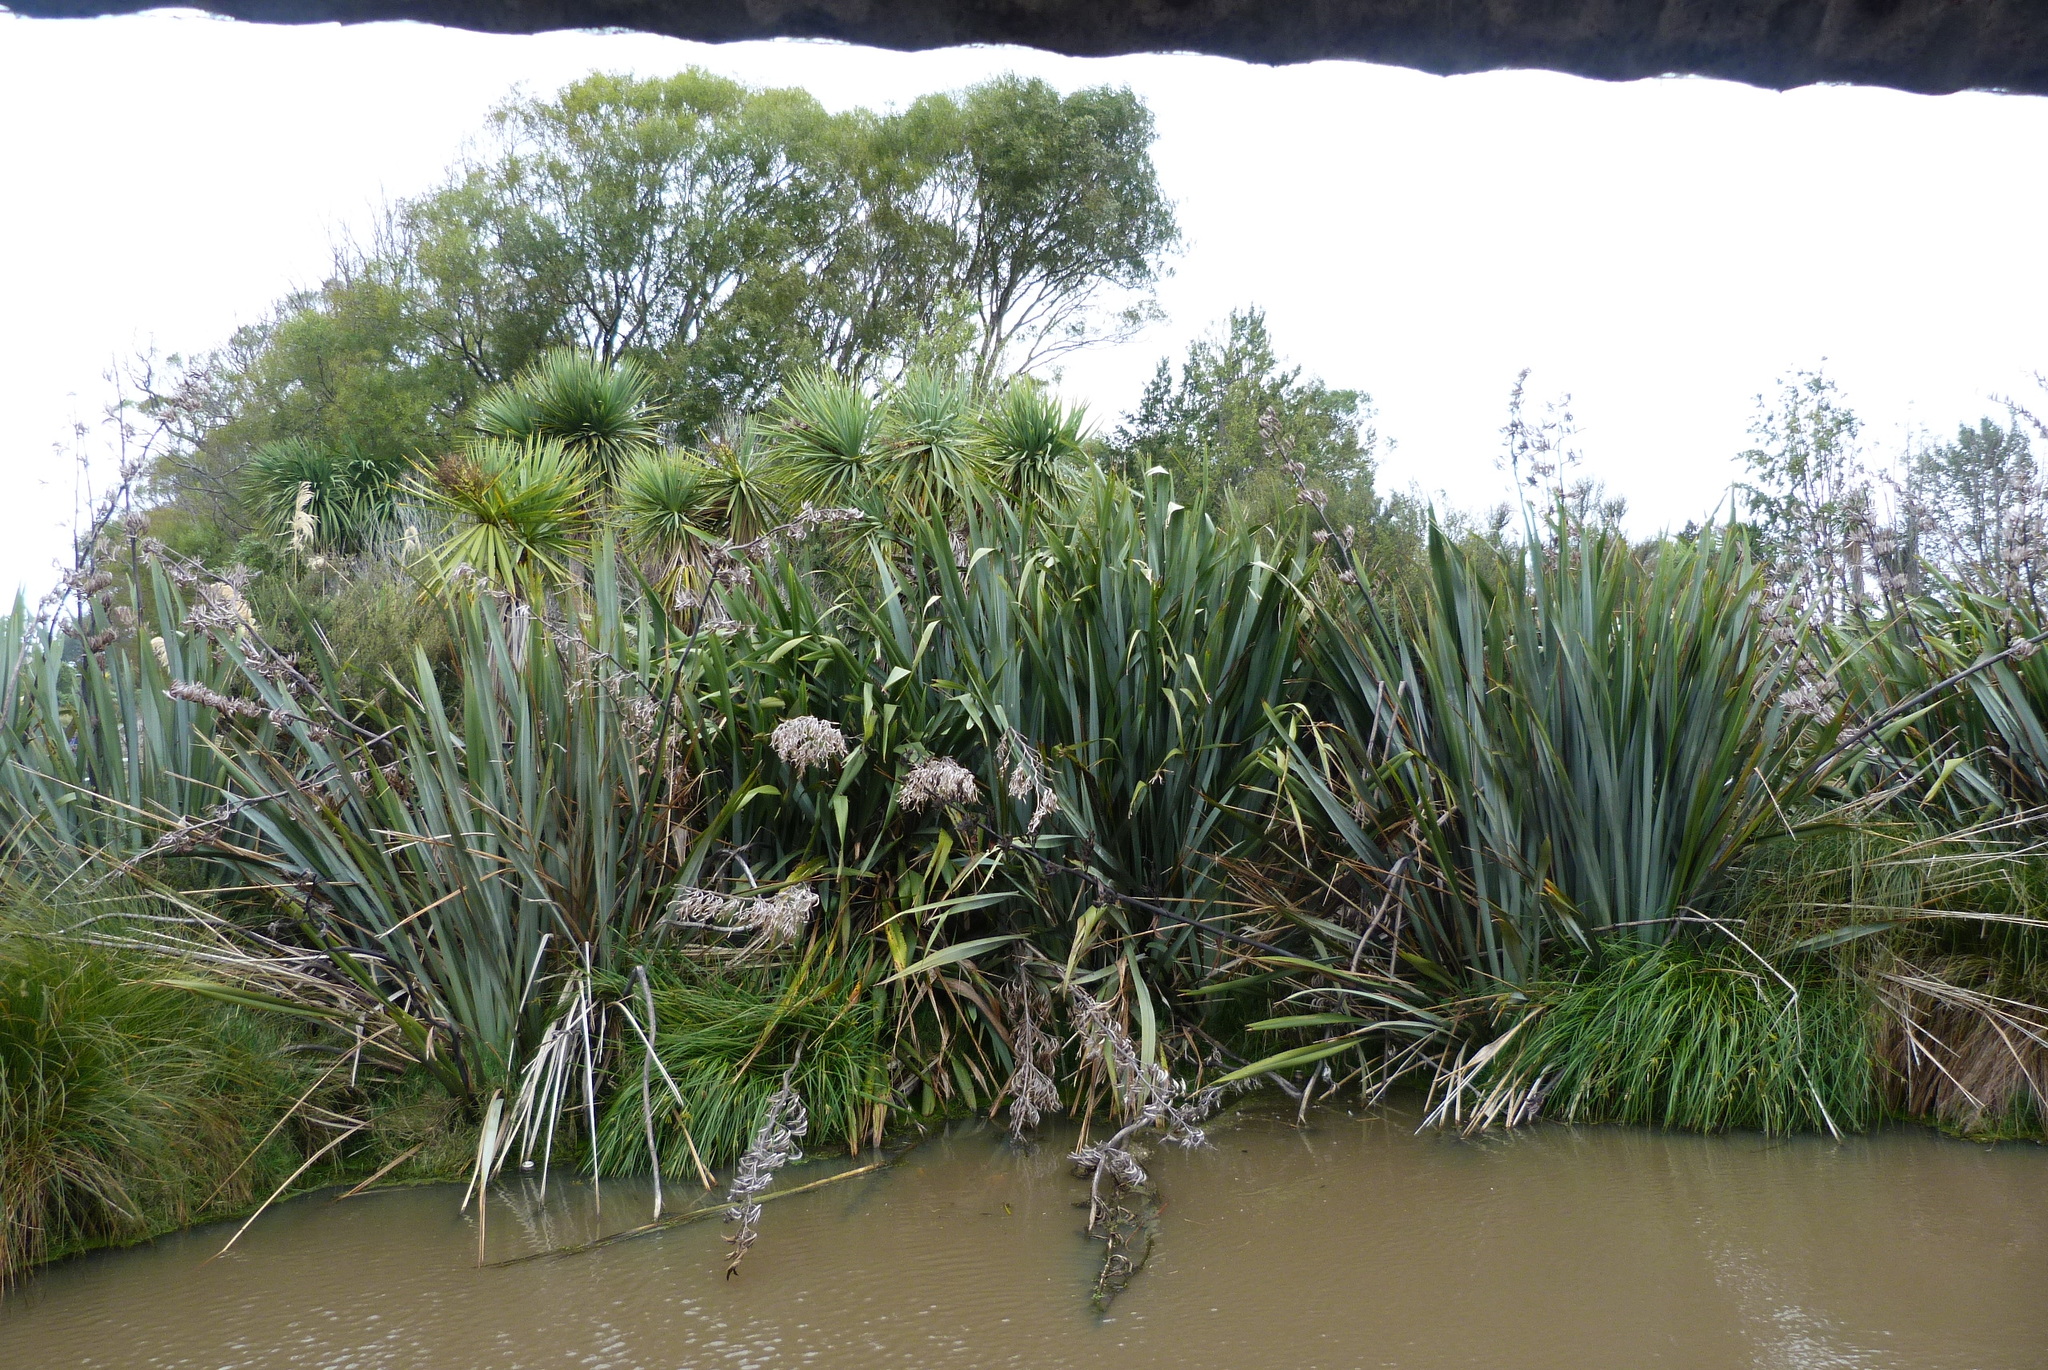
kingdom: Plantae
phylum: Tracheophyta
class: Liliopsida
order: Asparagales
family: Asphodelaceae
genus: Phormium
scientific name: Phormium tenax
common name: New zealand flax
